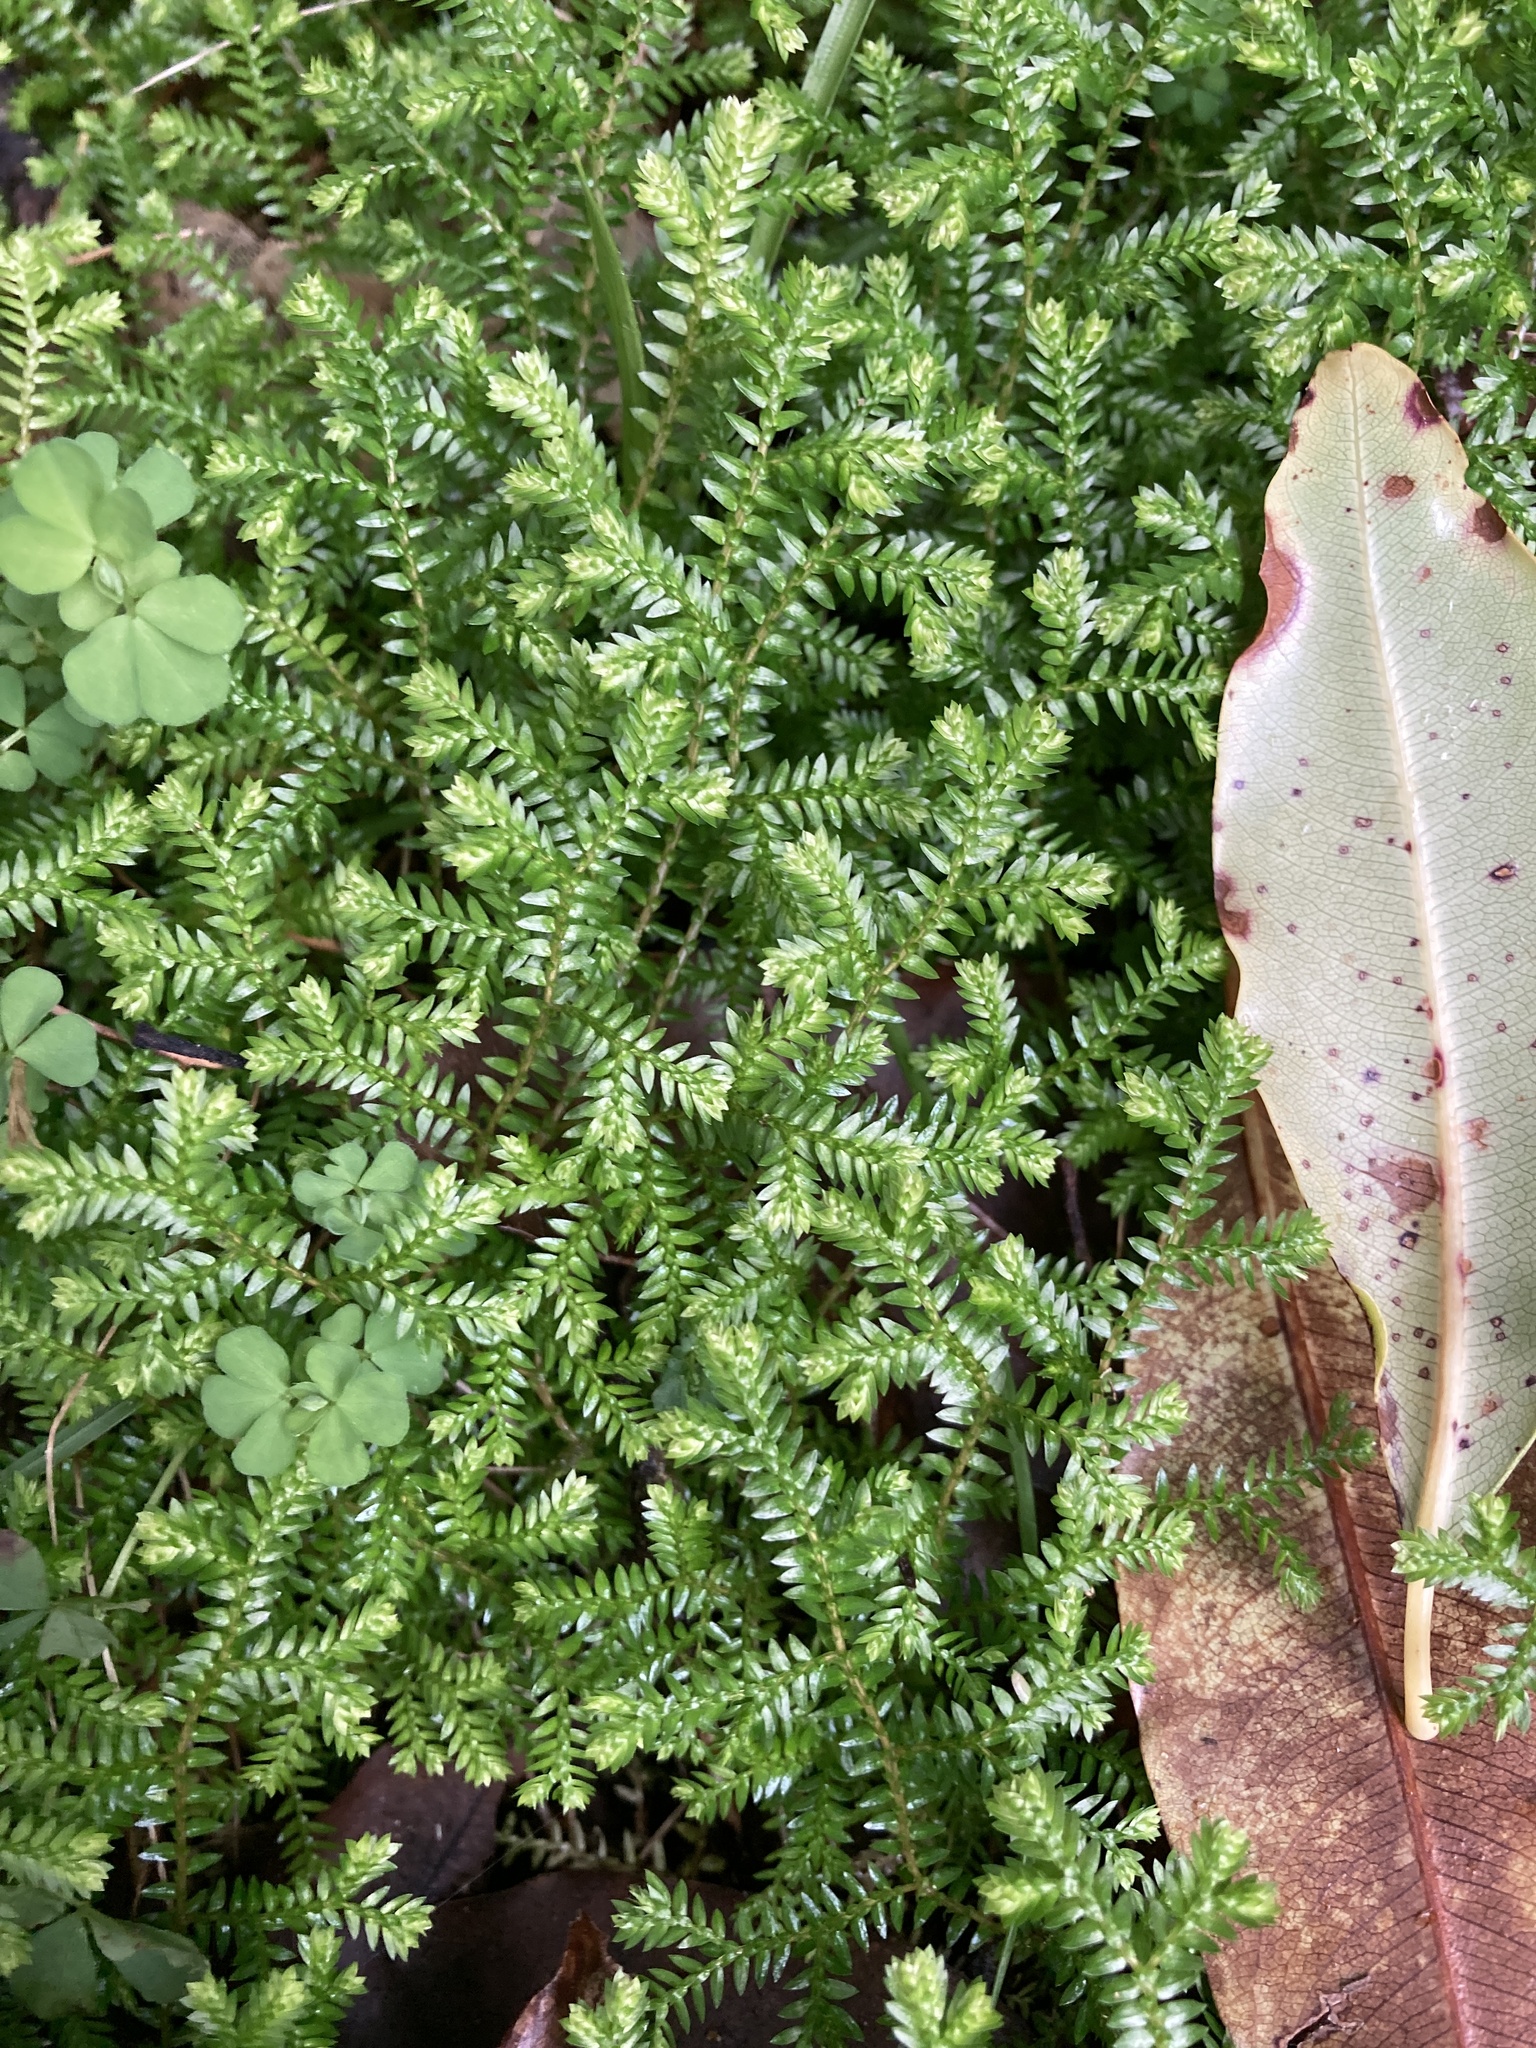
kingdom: Plantae
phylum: Tracheophyta
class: Lycopodiopsida
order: Selaginellales
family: Selaginellaceae
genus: Selaginella
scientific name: Selaginella kraussiana
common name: Krauss' spikemoss
